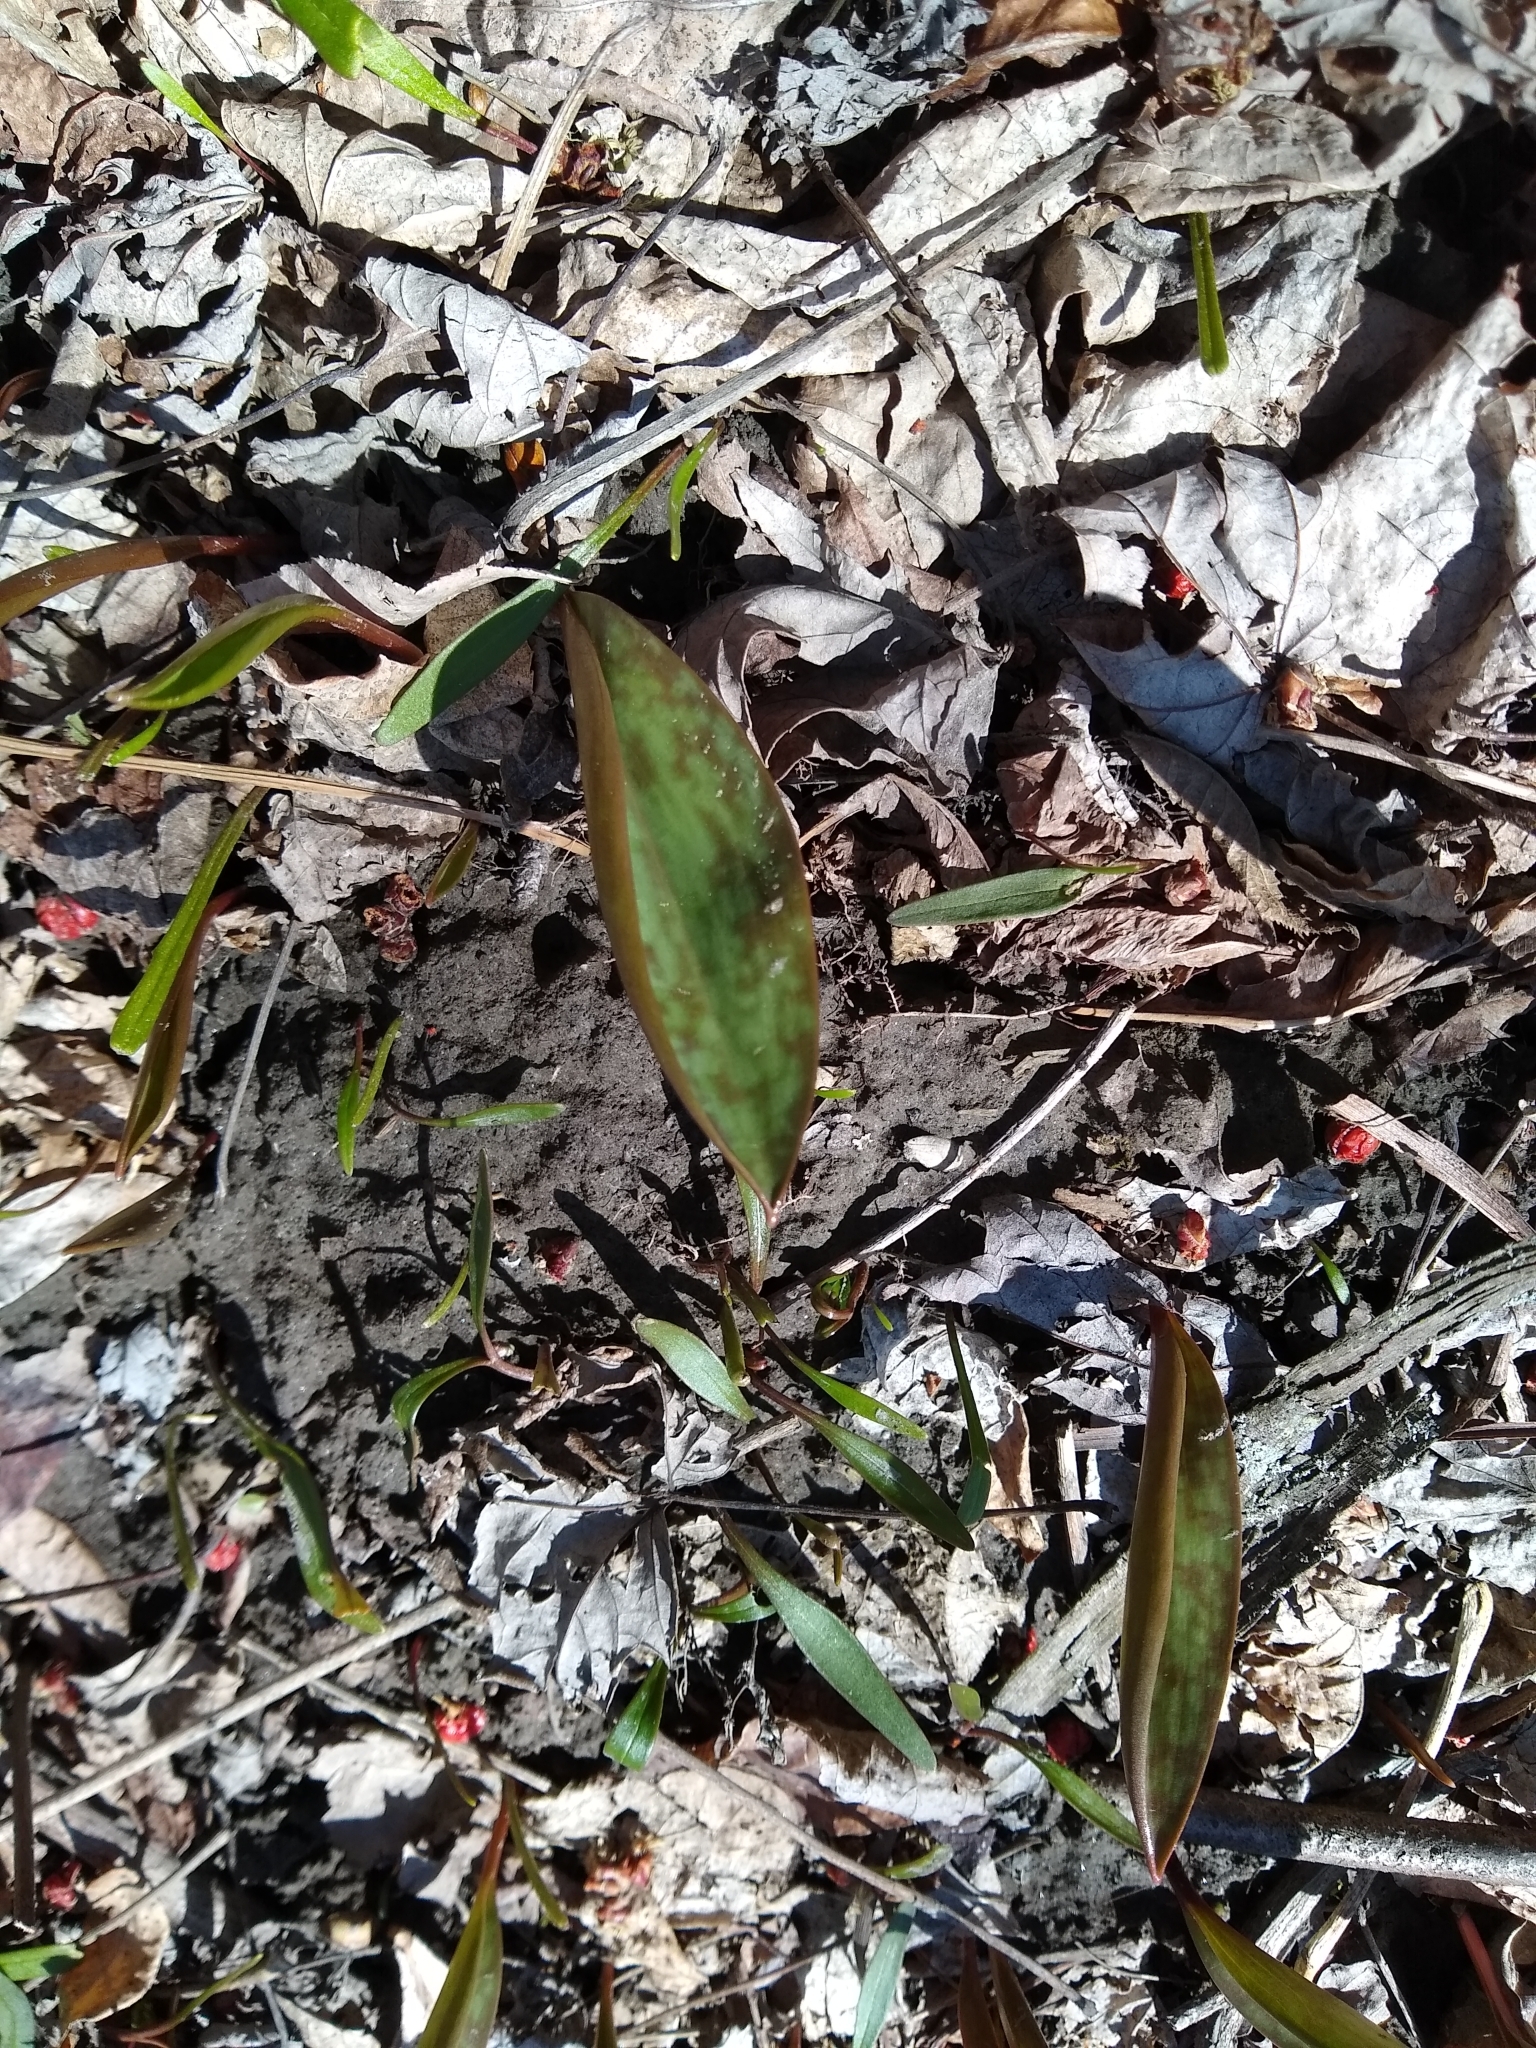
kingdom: Plantae
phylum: Tracheophyta
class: Liliopsida
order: Liliales
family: Liliaceae
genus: Erythronium
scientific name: Erythronium americanum
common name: Yellow adder's-tongue
